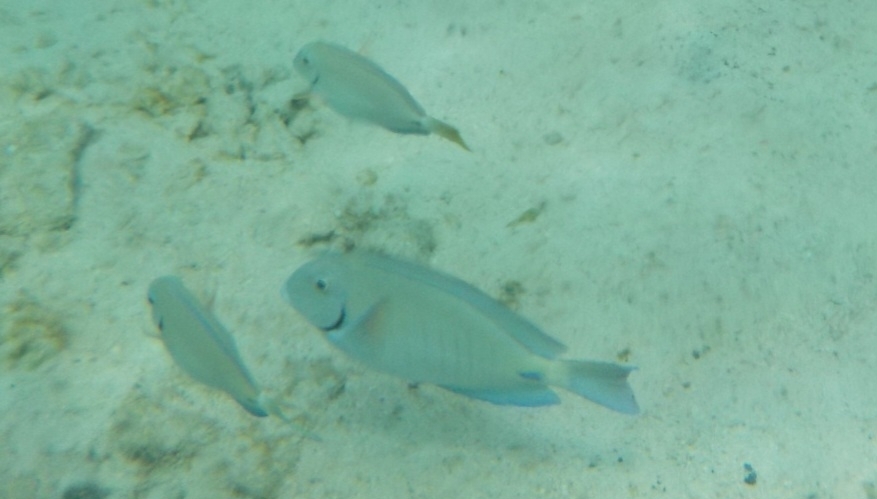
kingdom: Animalia
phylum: Chordata
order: Perciformes
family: Acanthuridae
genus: Acanthurus
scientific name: Acanthurus chirurgus
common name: Doctorfish
